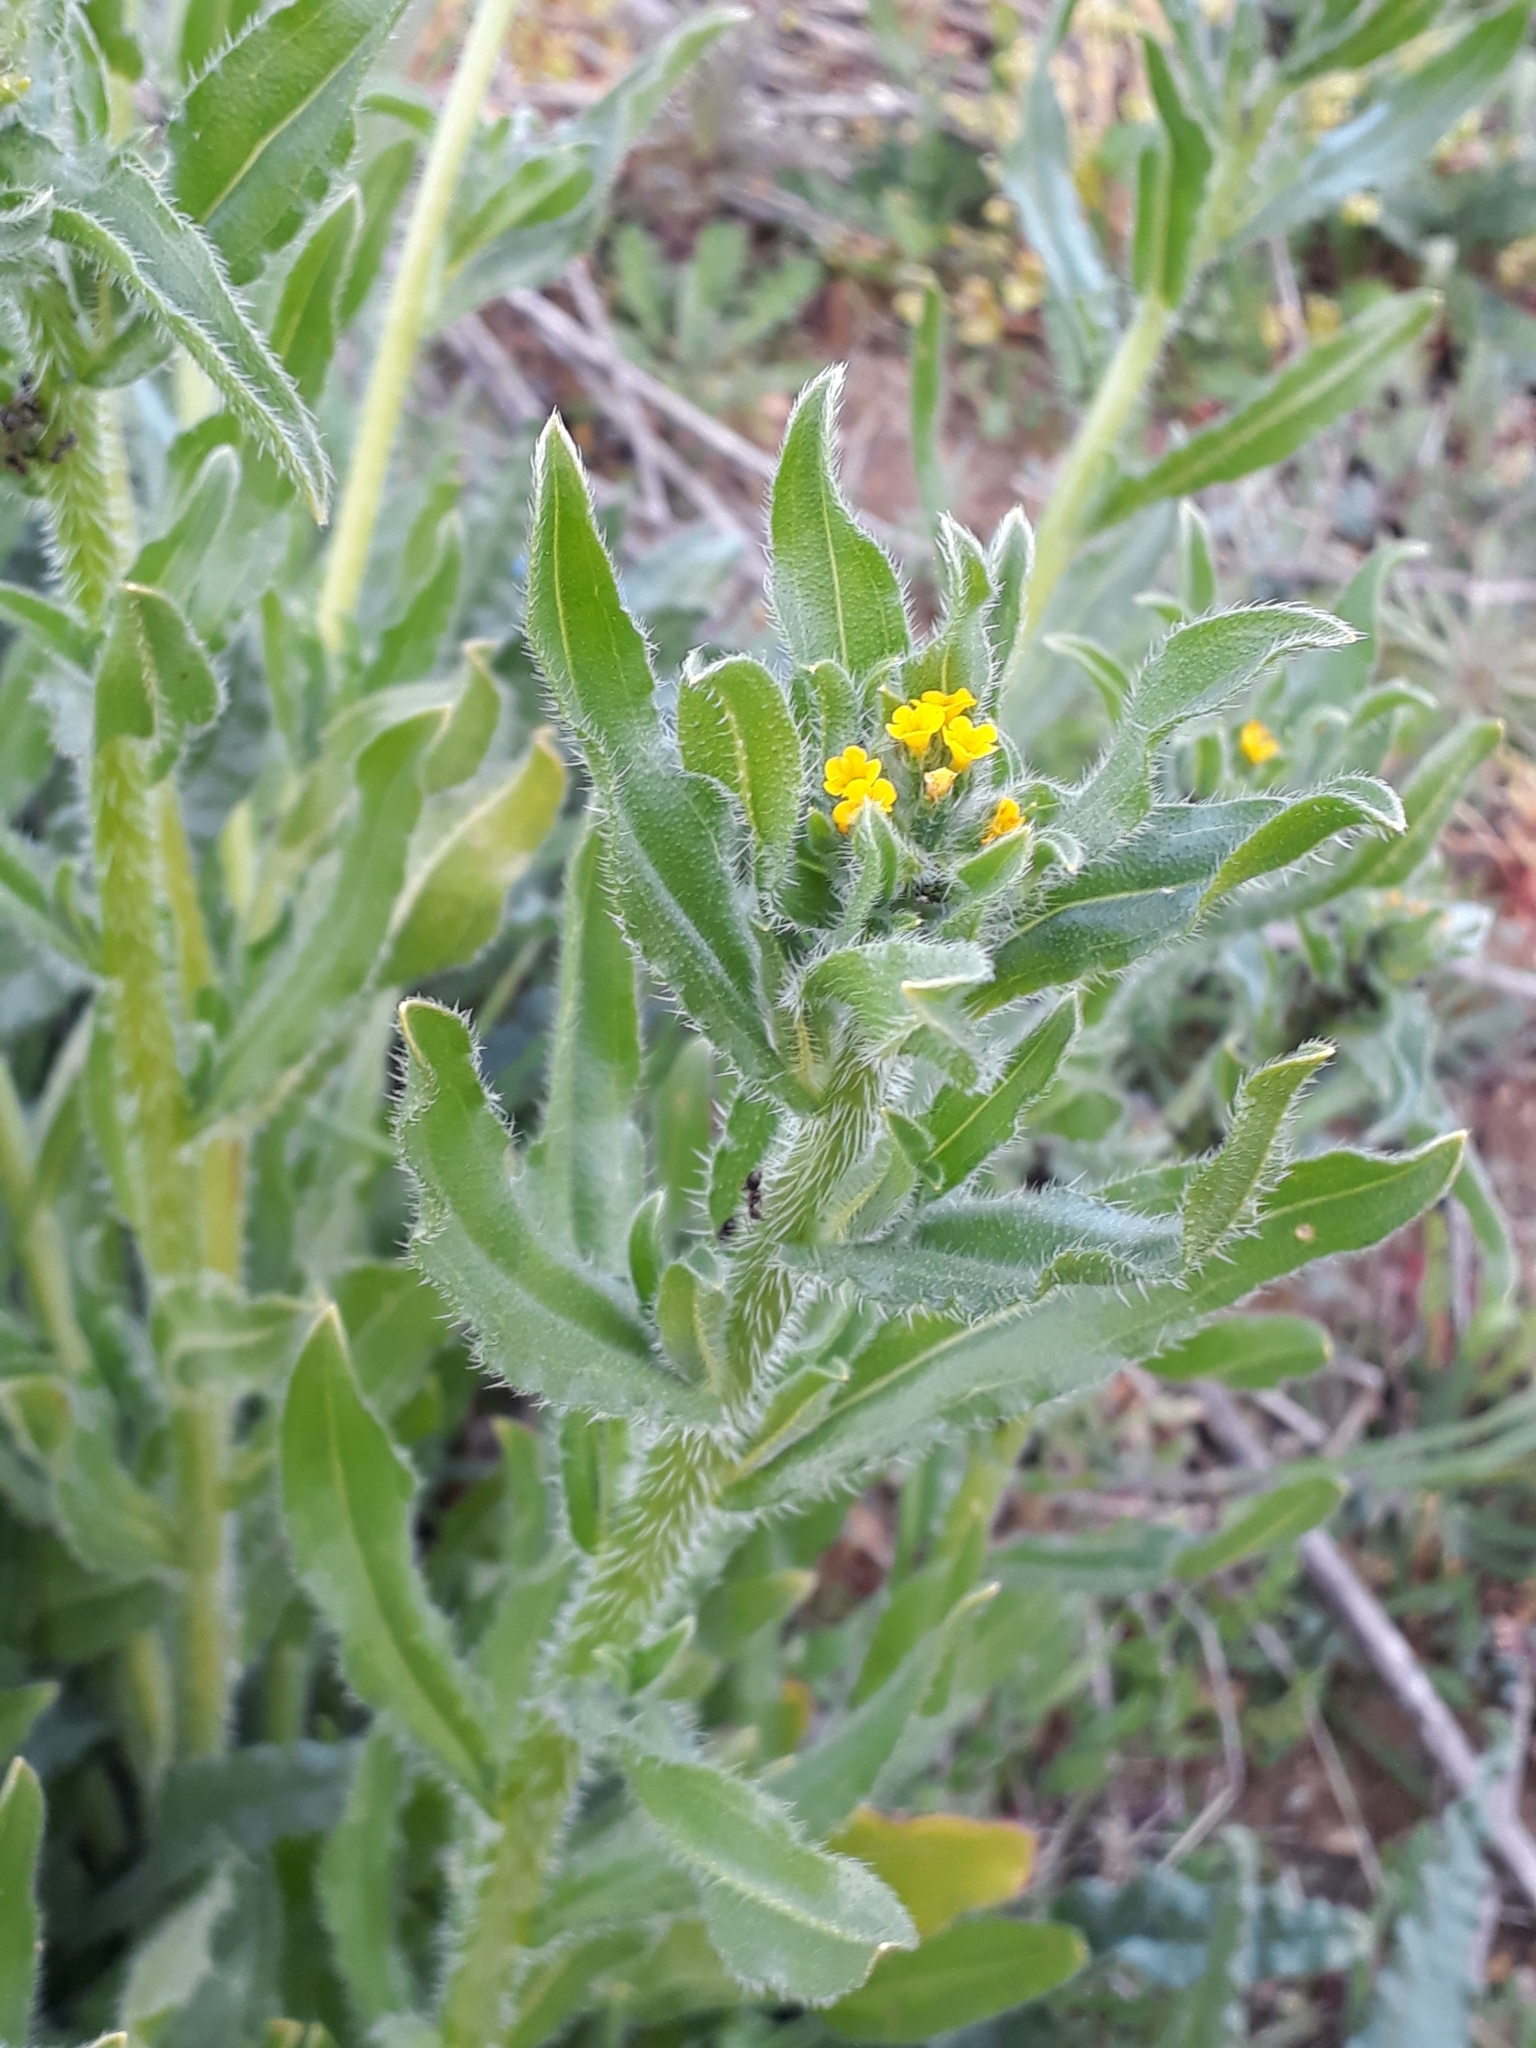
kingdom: Plantae
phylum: Tracheophyta
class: Magnoliopsida
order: Boraginales
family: Boraginaceae
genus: Amsinckia
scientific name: Amsinckia menziesii
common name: Menzies' fiddleneck
